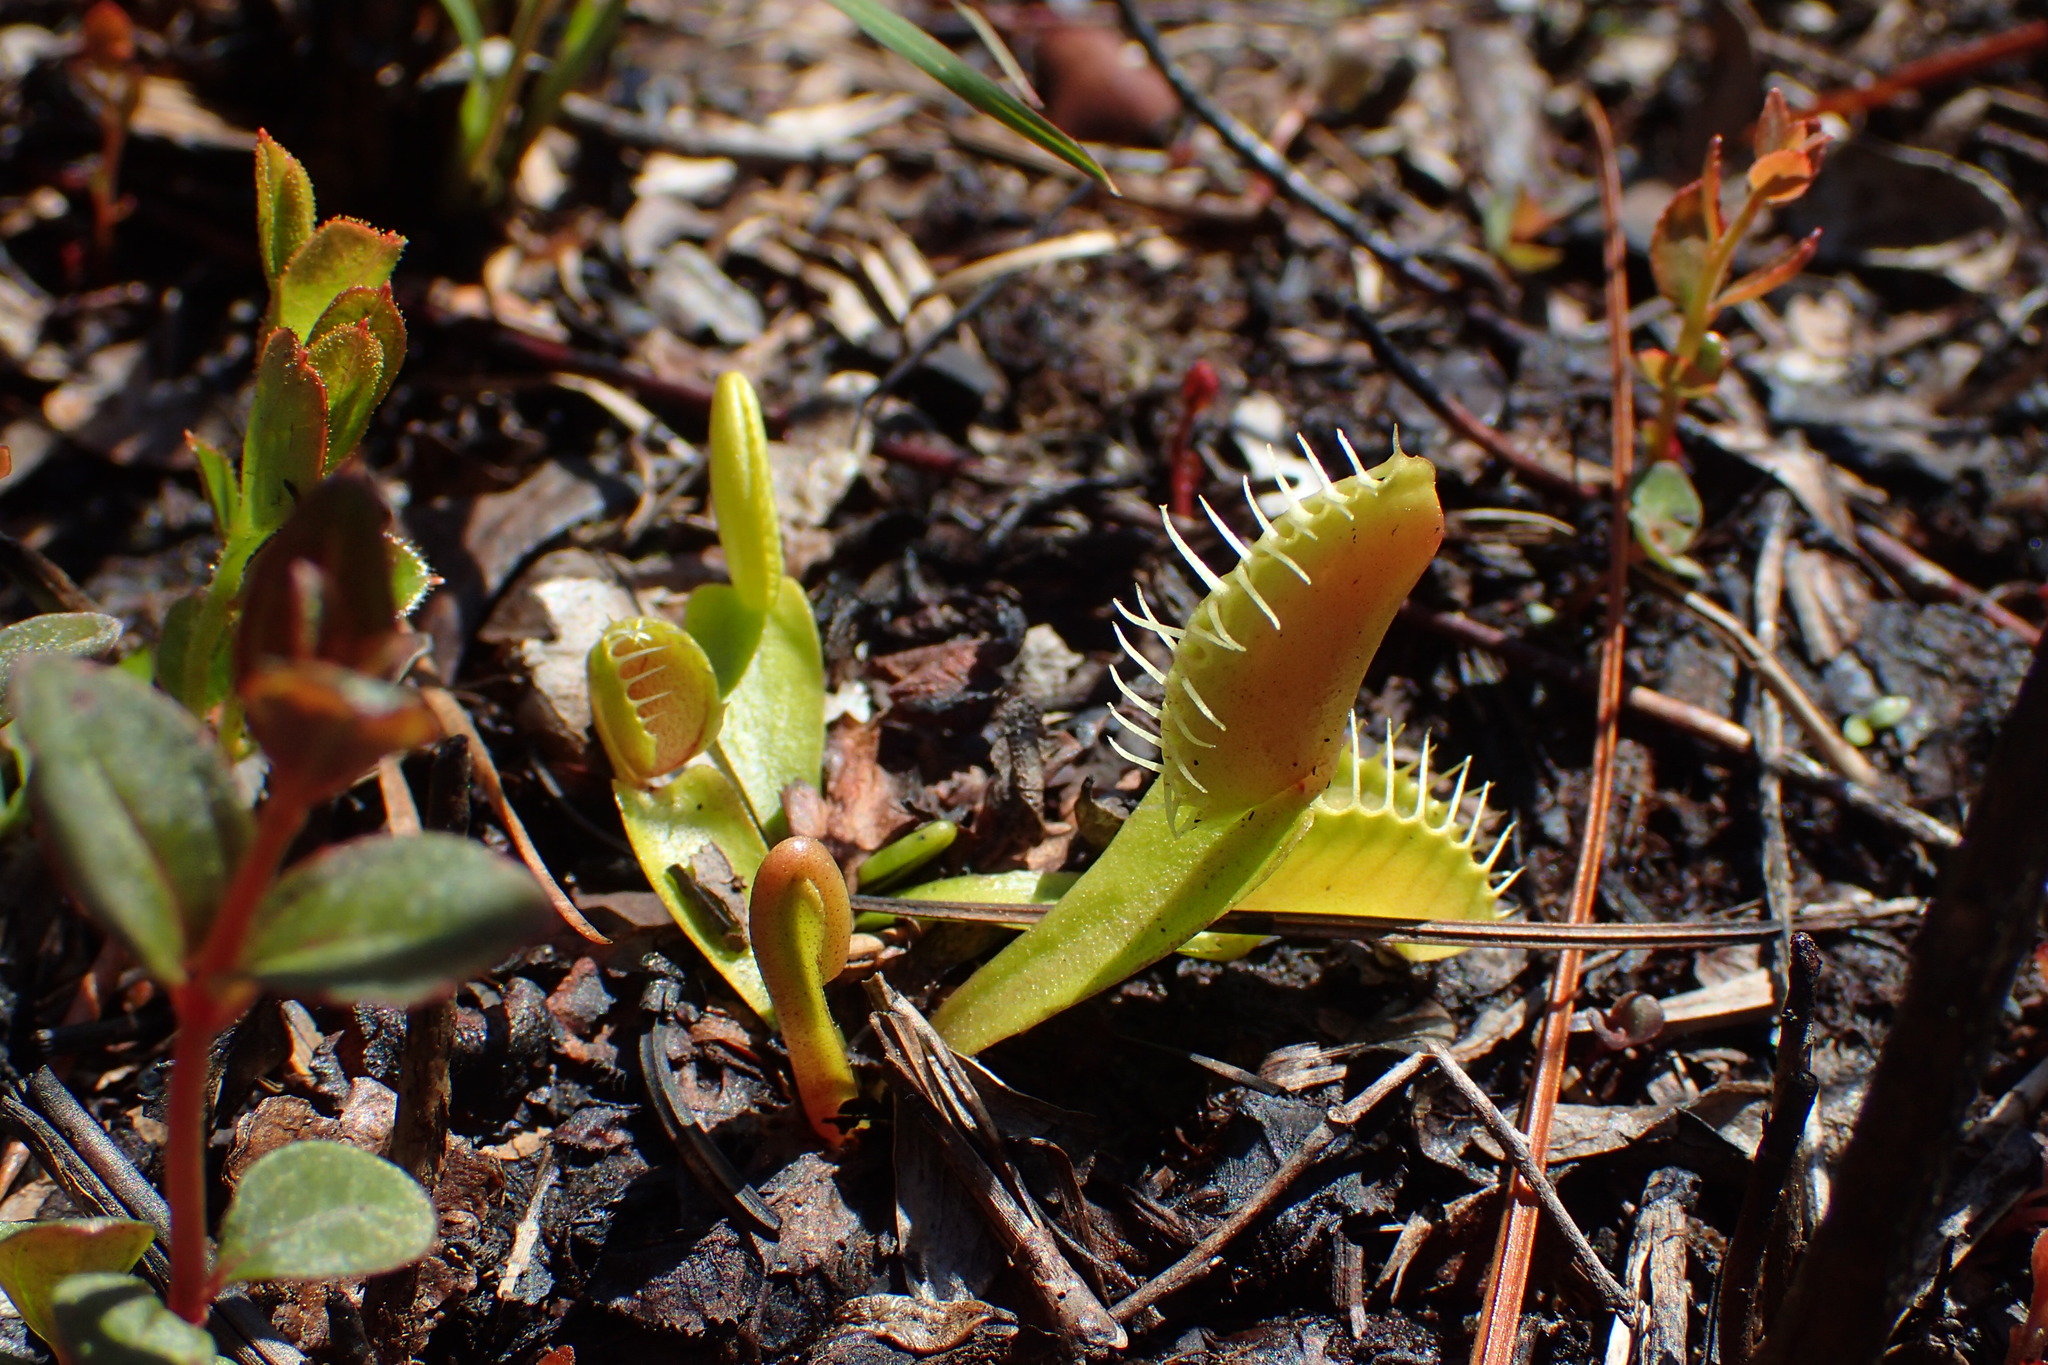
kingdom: Plantae
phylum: Tracheophyta
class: Magnoliopsida
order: Caryophyllales
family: Droseraceae
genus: Dionaea
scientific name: Dionaea muscipula
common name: Venus flytrap
